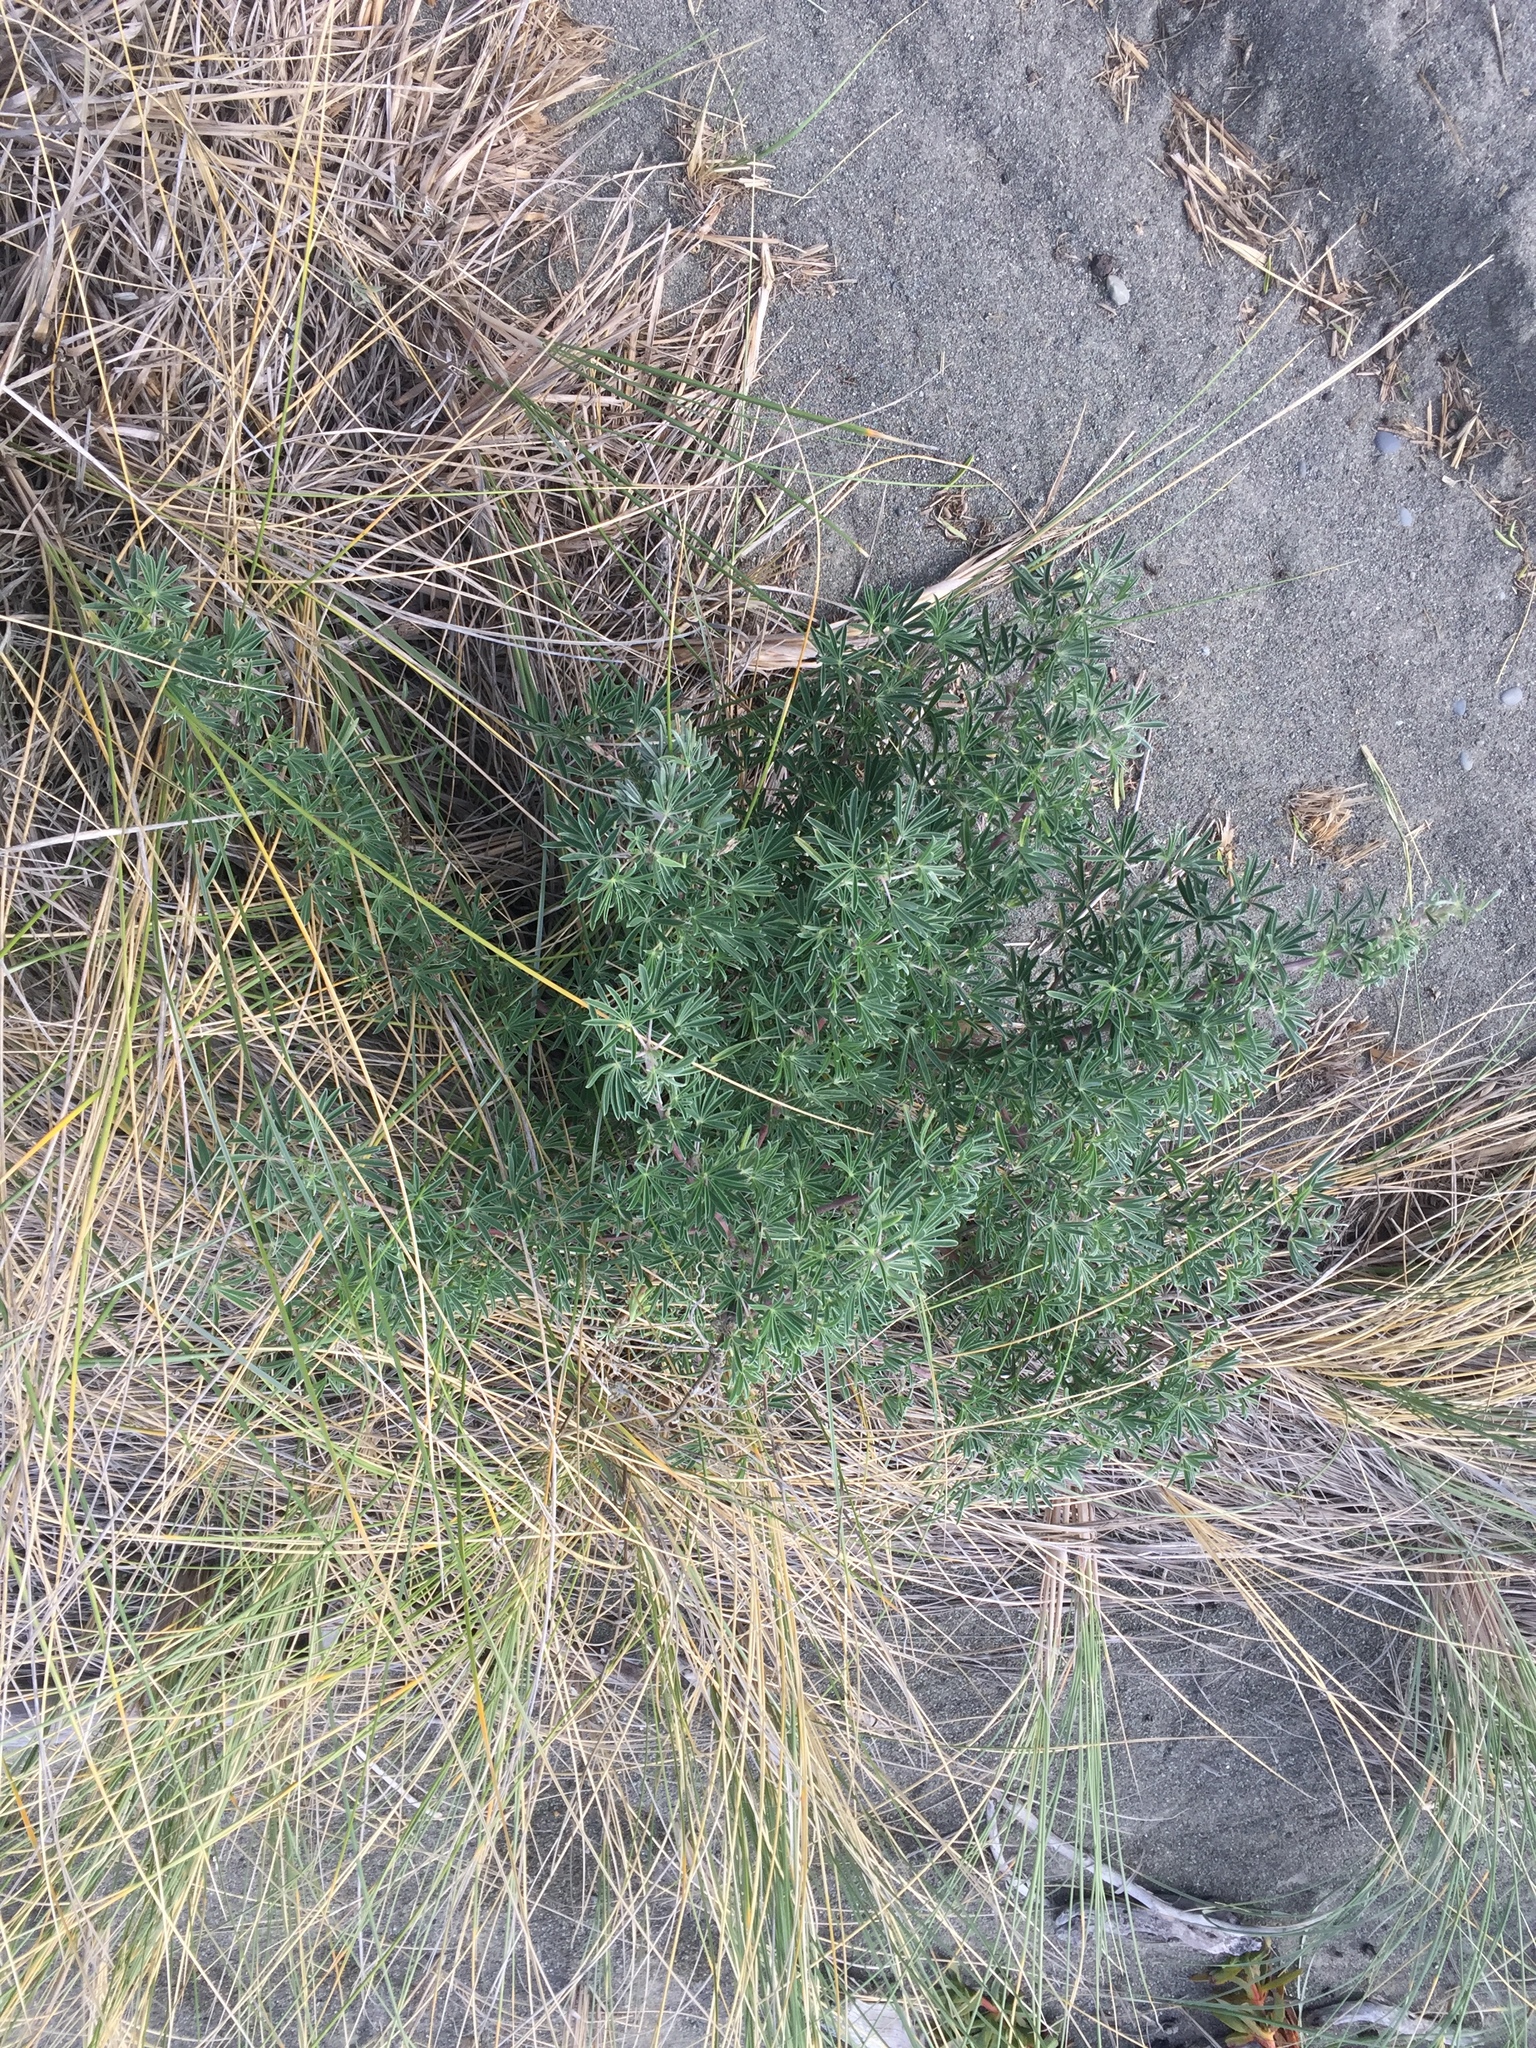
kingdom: Plantae
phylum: Tracheophyta
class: Magnoliopsida
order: Fabales
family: Fabaceae
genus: Lupinus
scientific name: Lupinus arboreus
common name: Yellow bush lupine
